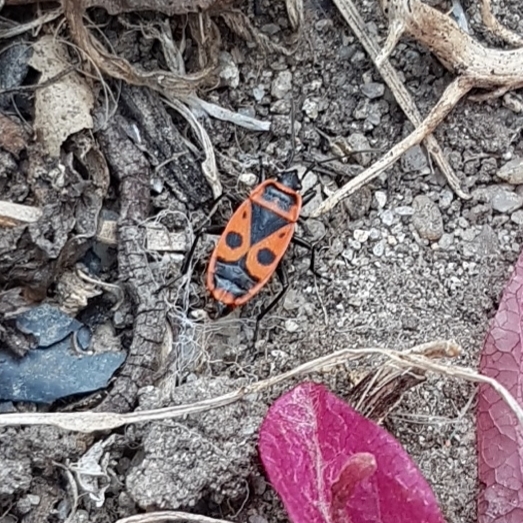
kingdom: Animalia
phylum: Arthropoda
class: Insecta
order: Hemiptera
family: Pyrrhocoridae
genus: Pyrrhocoris
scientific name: Pyrrhocoris apterus
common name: Firebug
